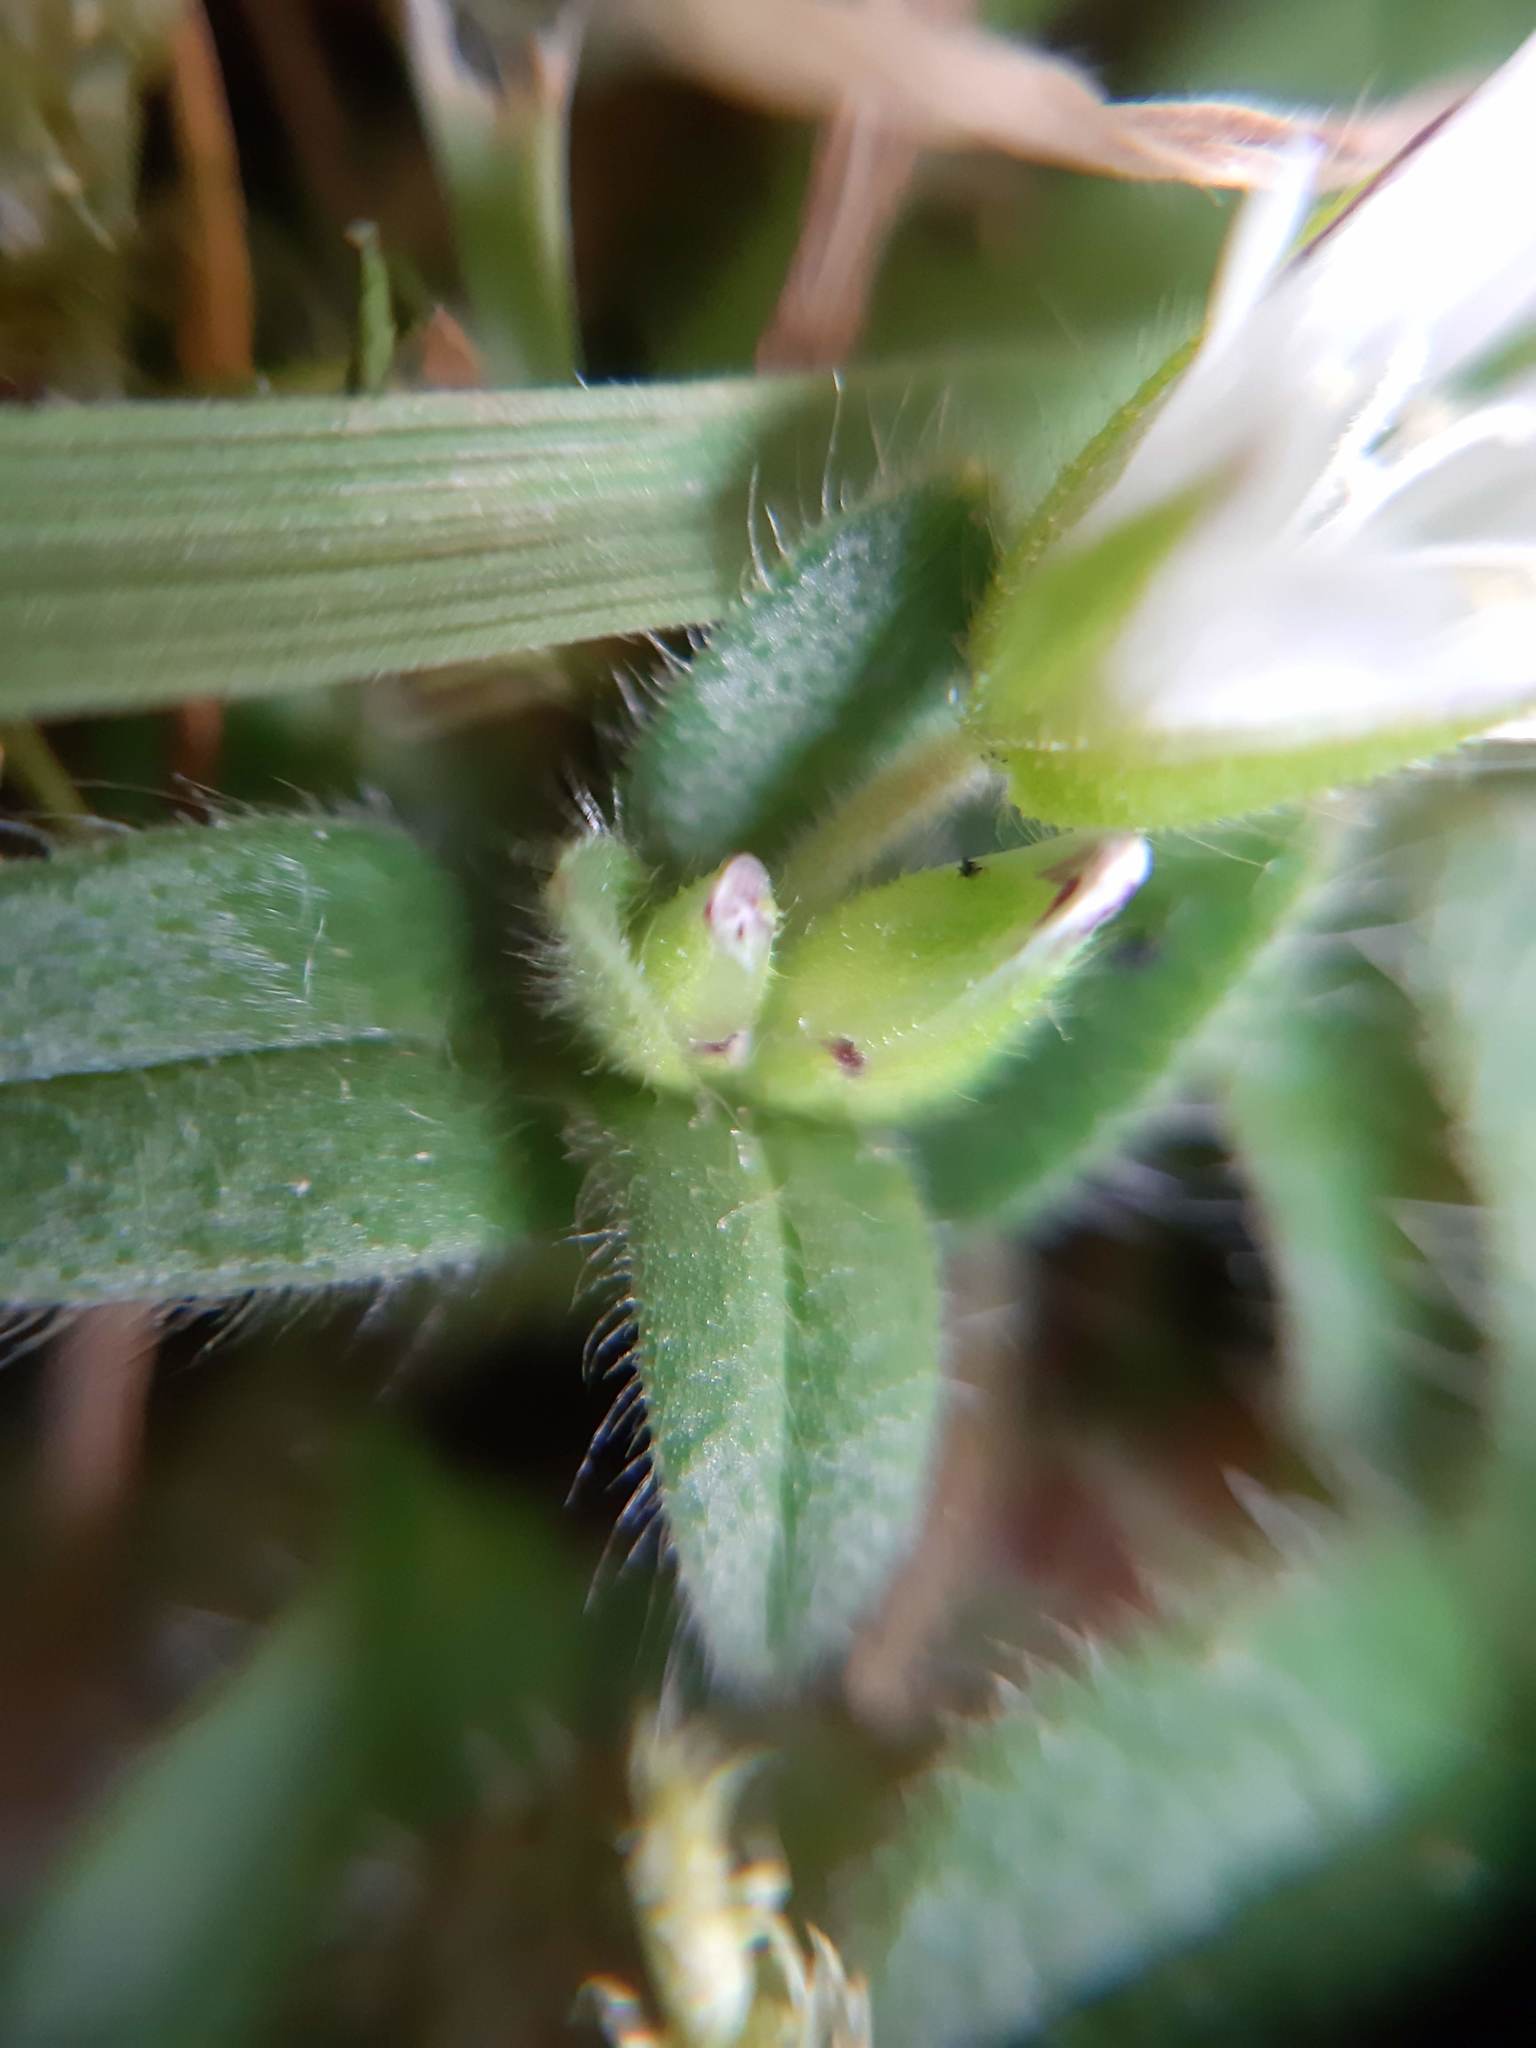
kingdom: Plantae
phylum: Tracheophyta
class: Magnoliopsida
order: Caryophyllales
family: Caryophyllaceae
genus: Cerastium
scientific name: Cerastium fontanum
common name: Common mouse-ear
